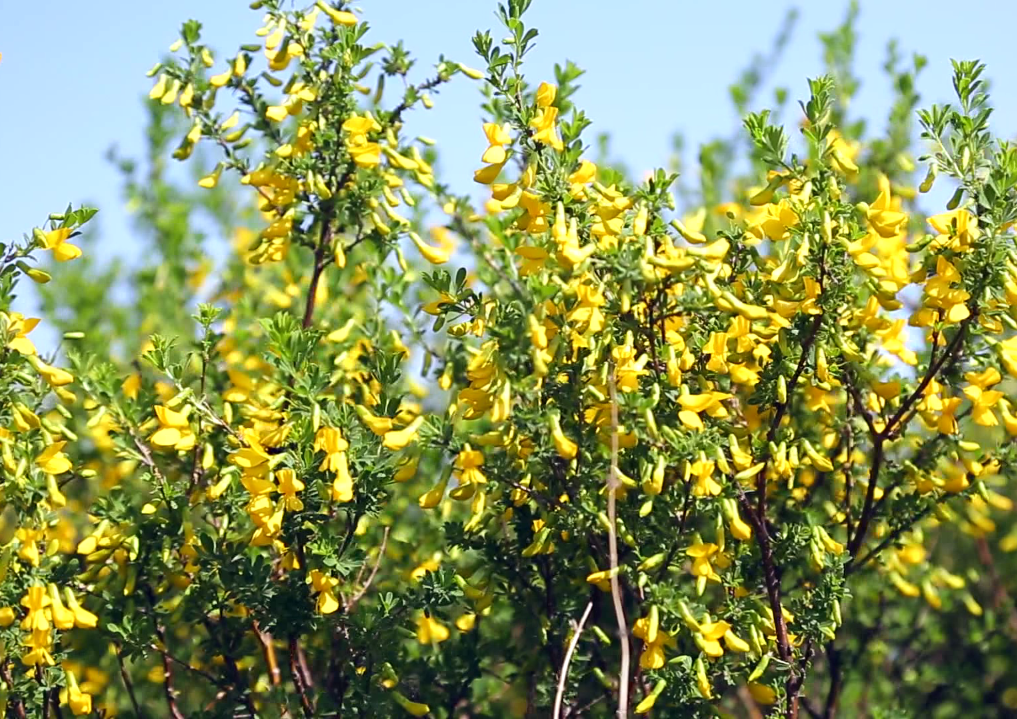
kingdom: Plantae
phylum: Tracheophyta
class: Magnoliopsida
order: Fabales
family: Fabaceae
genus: Caragana
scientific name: Caragana frutex
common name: Russian peashrub
